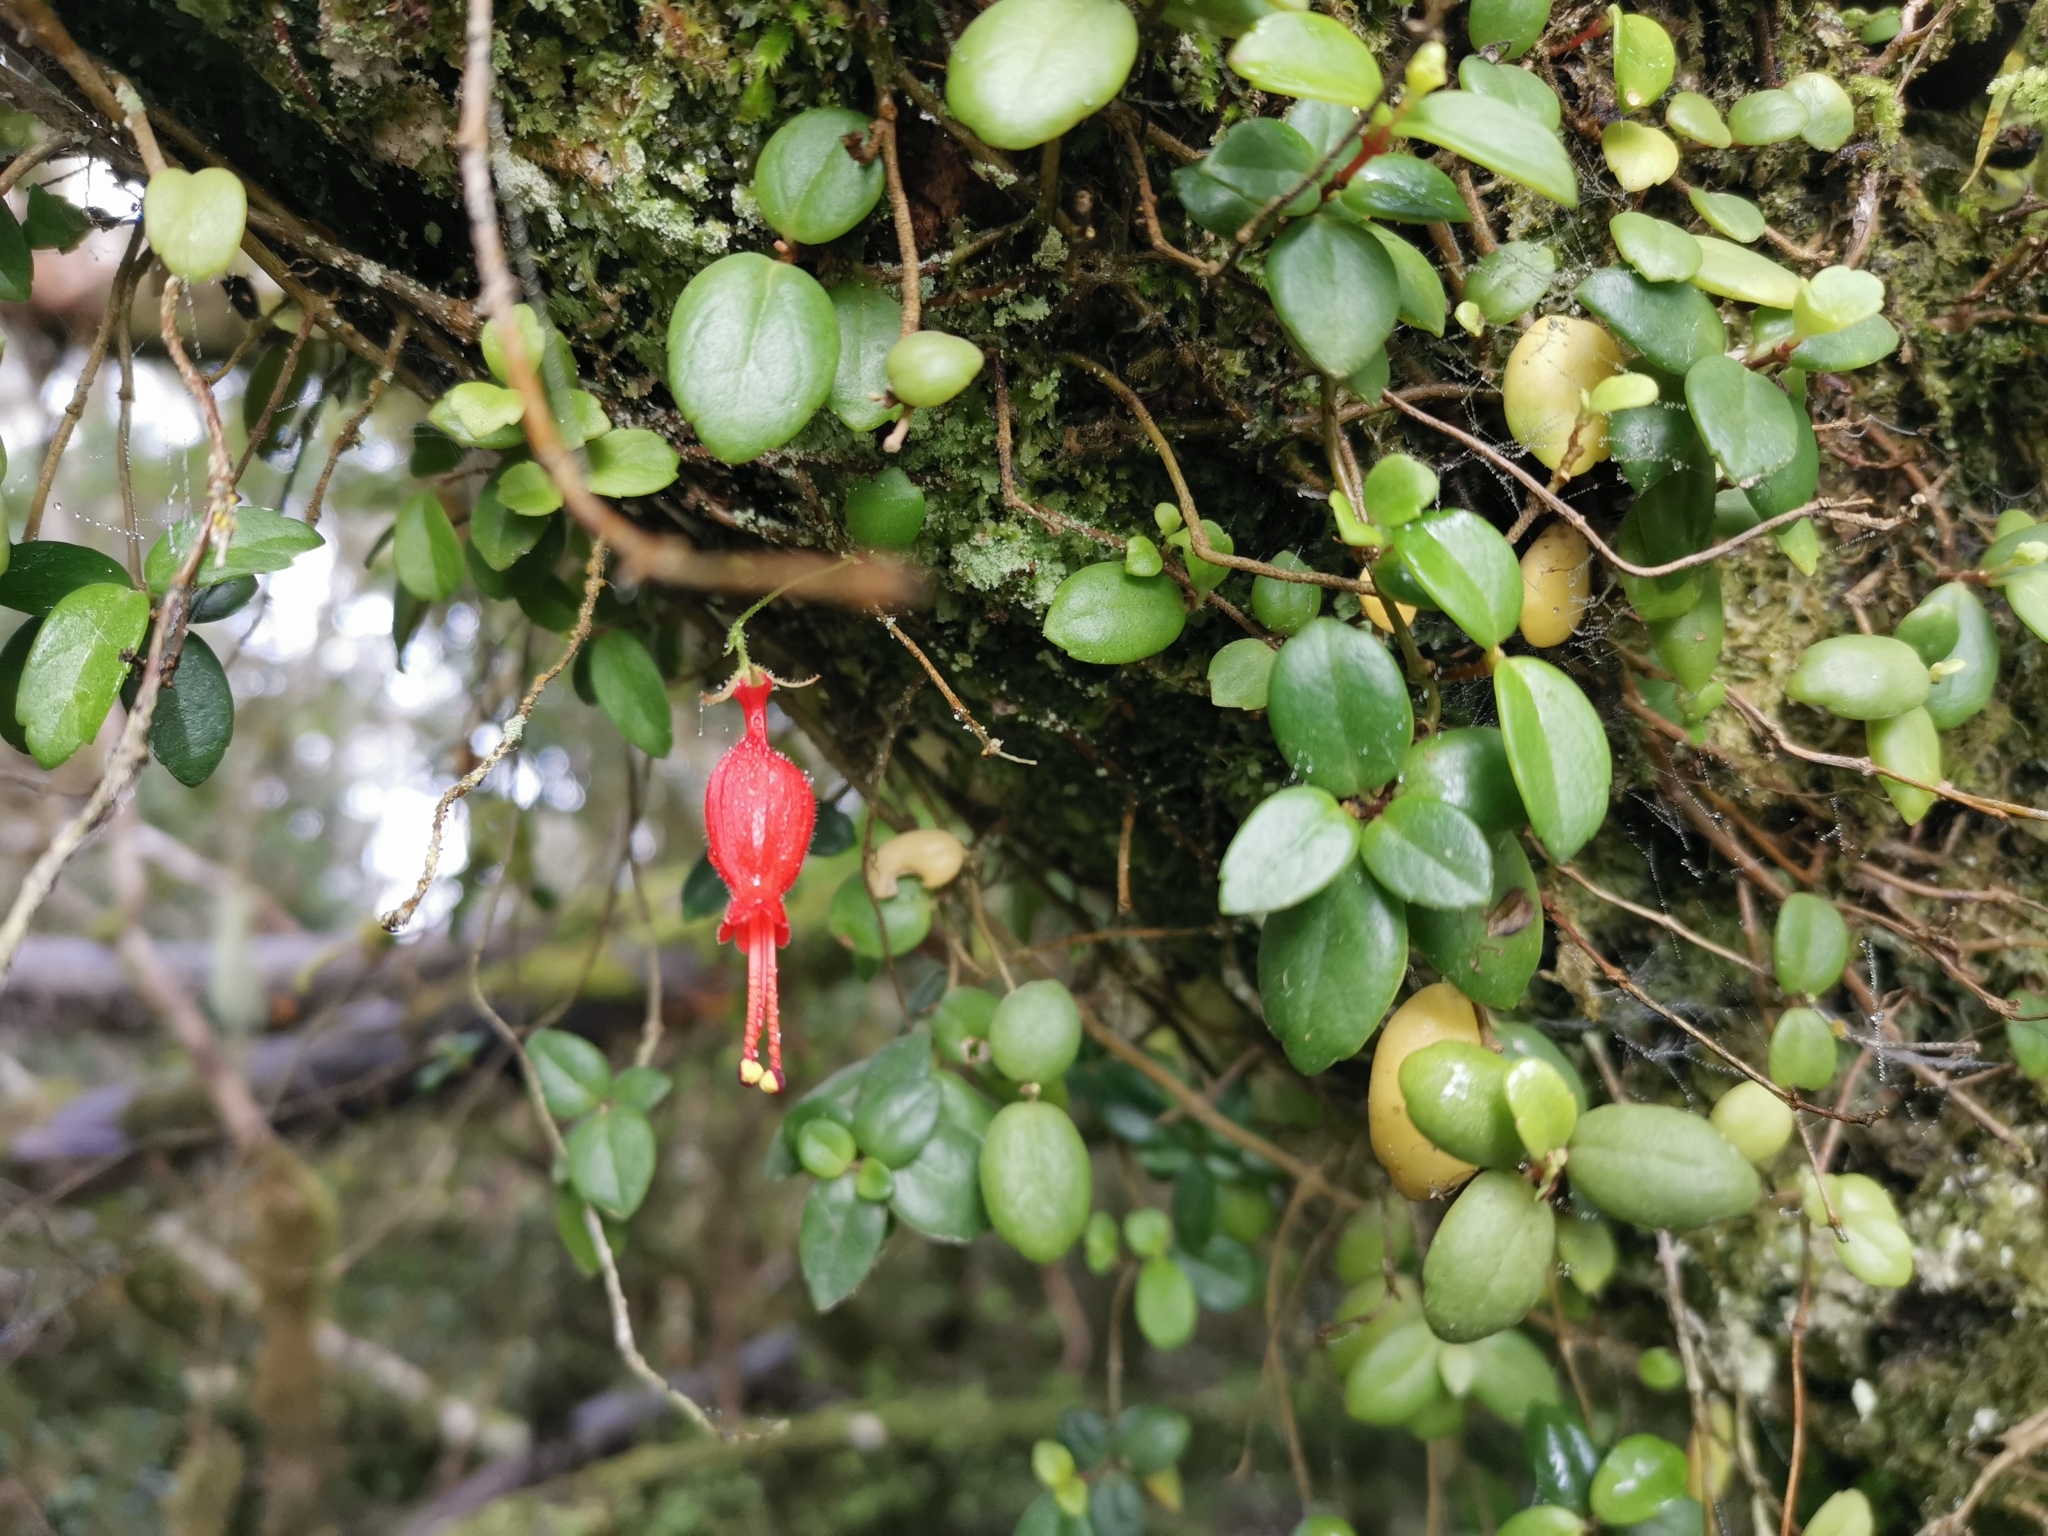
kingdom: Plantae
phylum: Tracheophyta
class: Magnoliopsida
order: Lamiales
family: Gesneriaceae
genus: Sarmienta
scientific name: Sarmienta scandens
